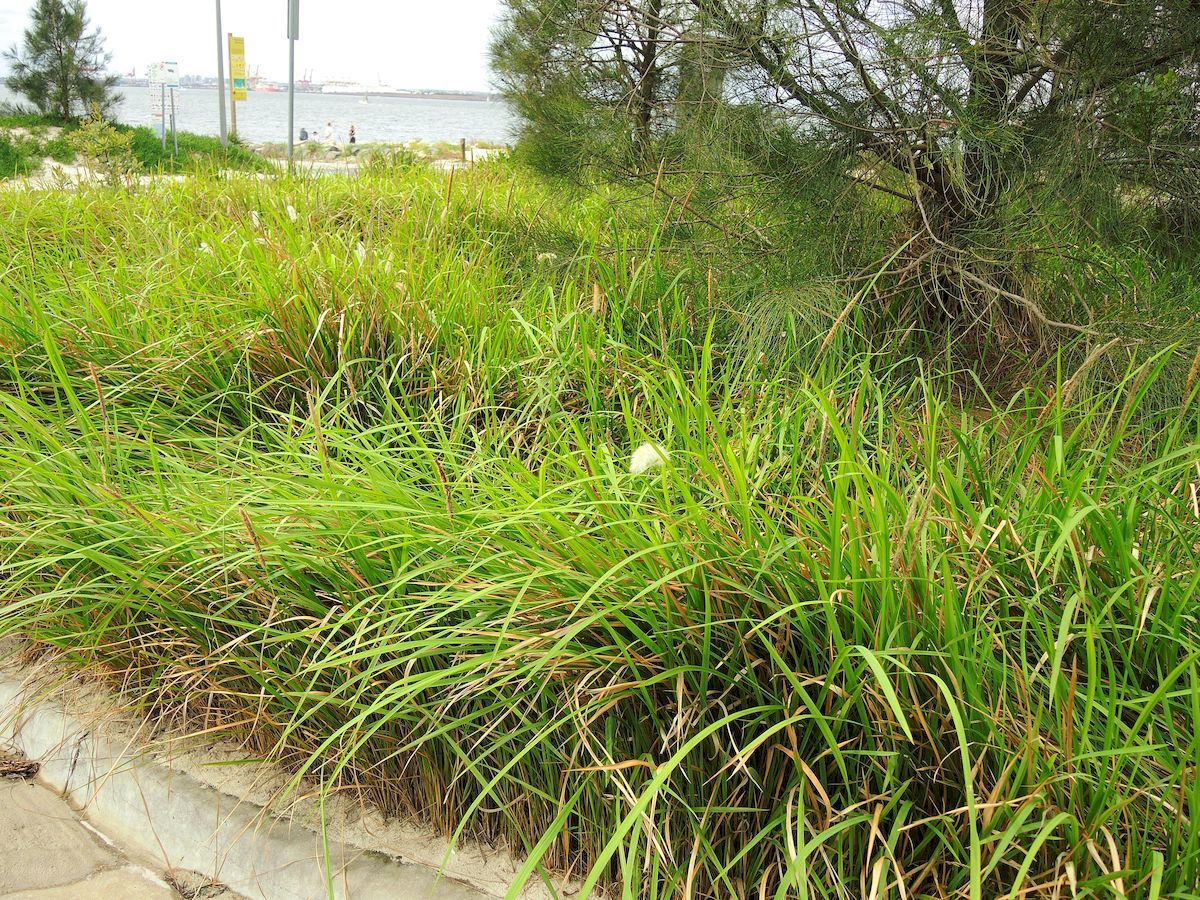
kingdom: Plantae
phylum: Tracheophyta
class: Liliopsida
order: Poales
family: Poaceae
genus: Imperata
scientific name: Imperata cylindrica
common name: Cogongrass
